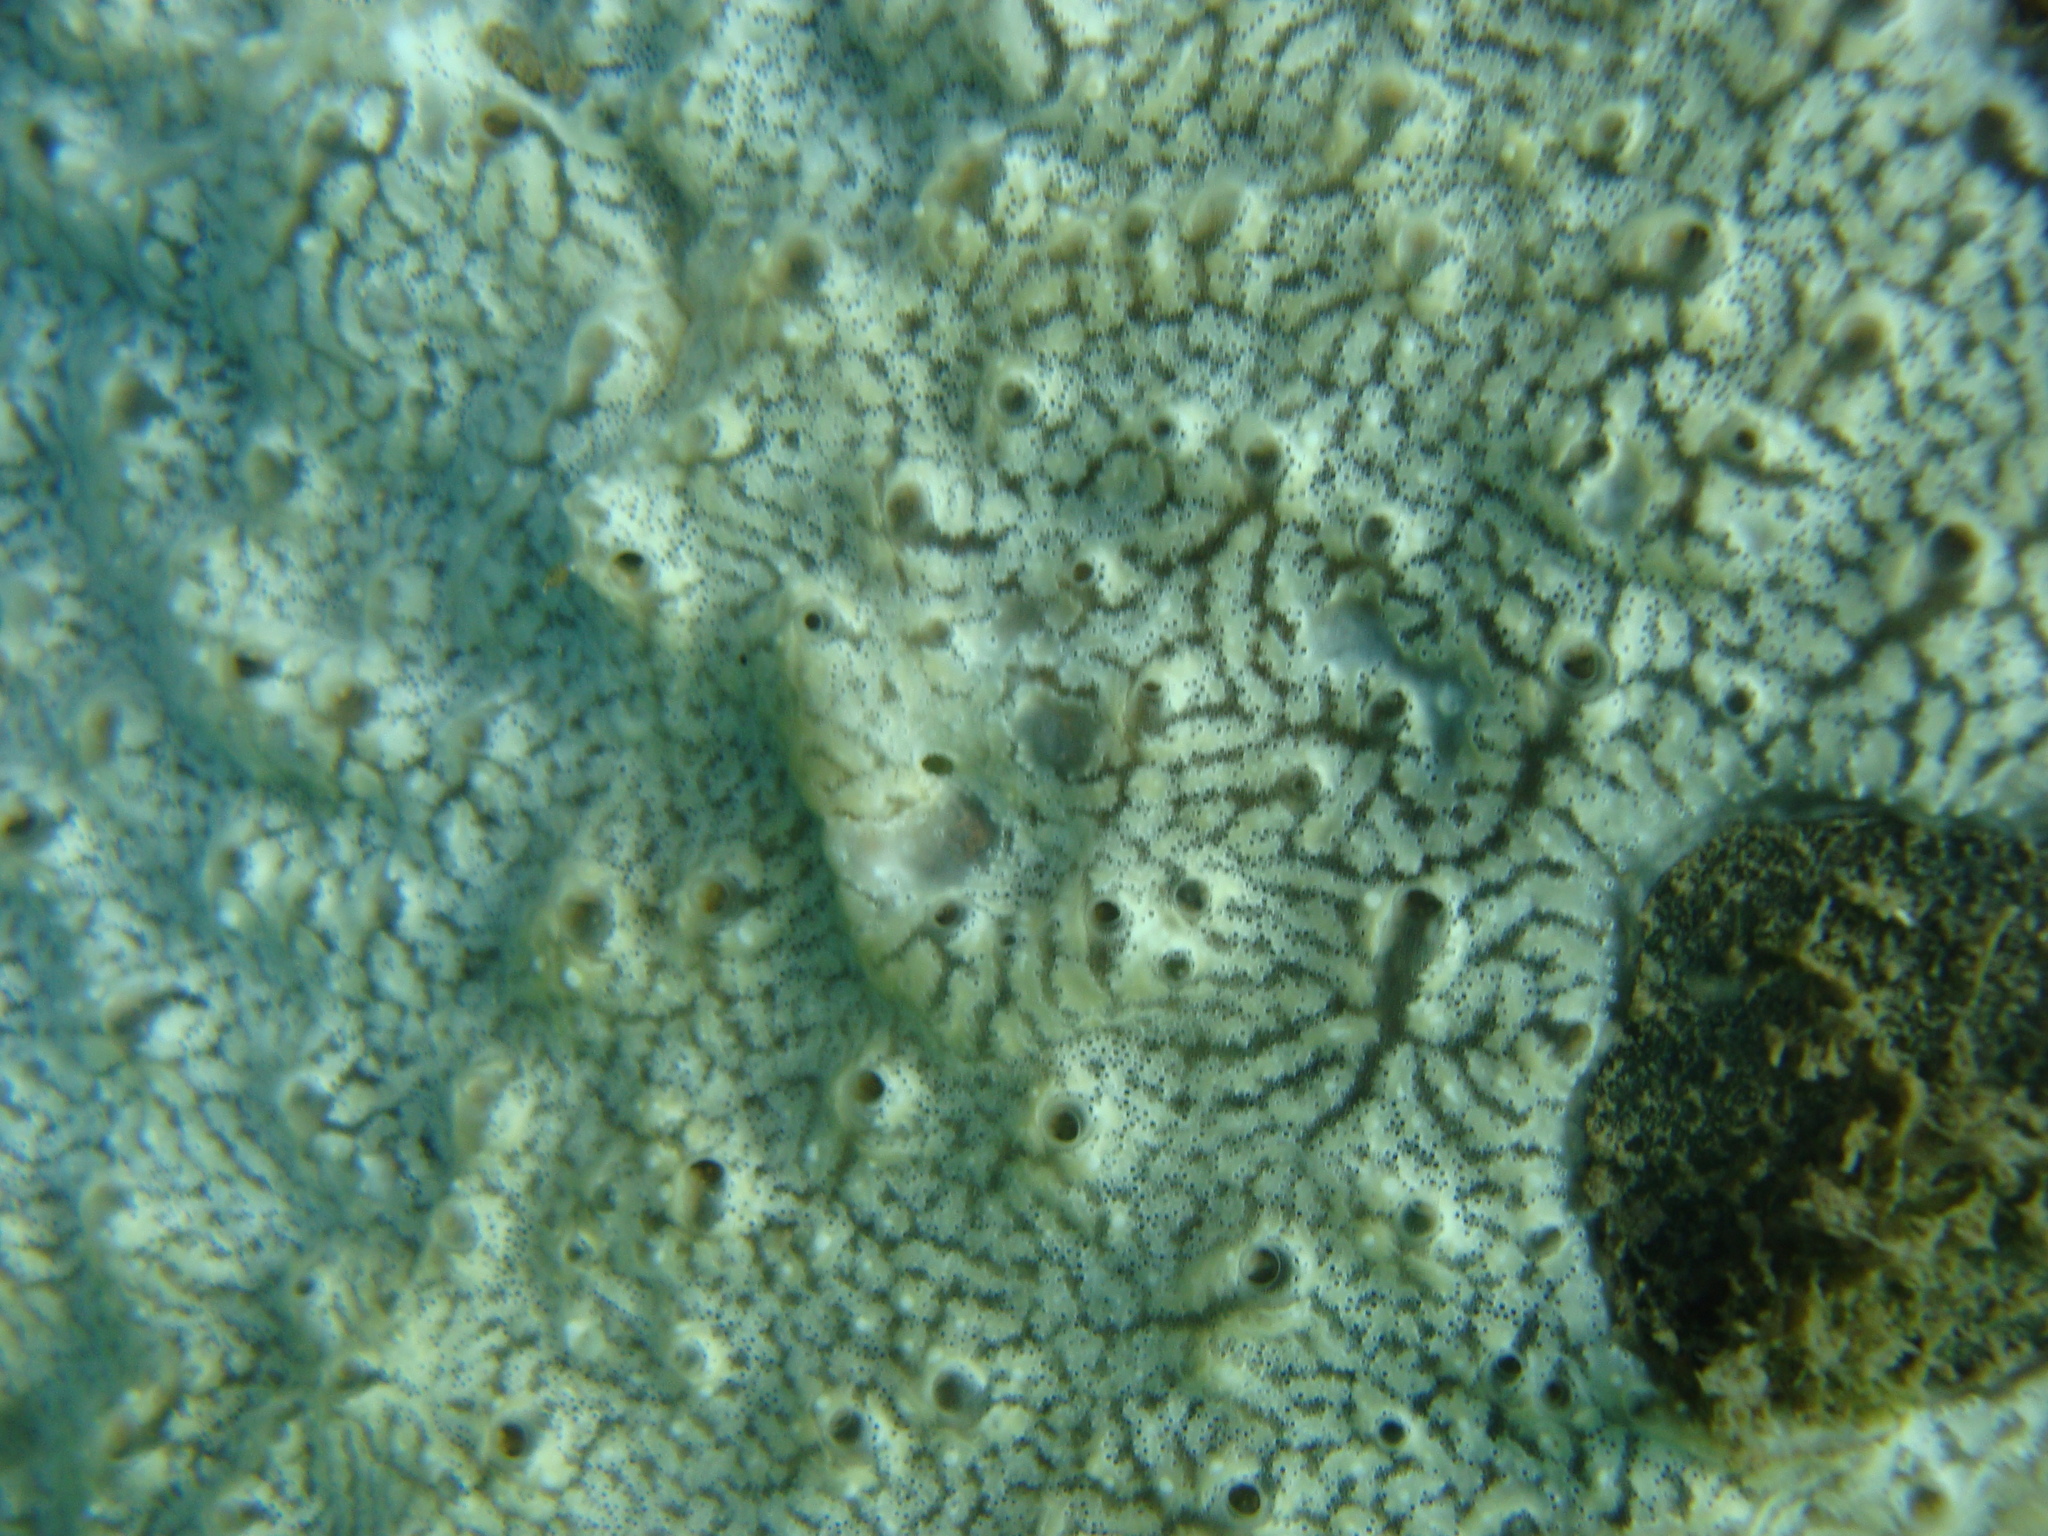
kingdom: Animalia
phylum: Chordata
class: Ascidiacea
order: Aplousobranchia
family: Didemnidae
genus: Didemnum
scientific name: Didemnum perlucidum
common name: Colonial tunicate
